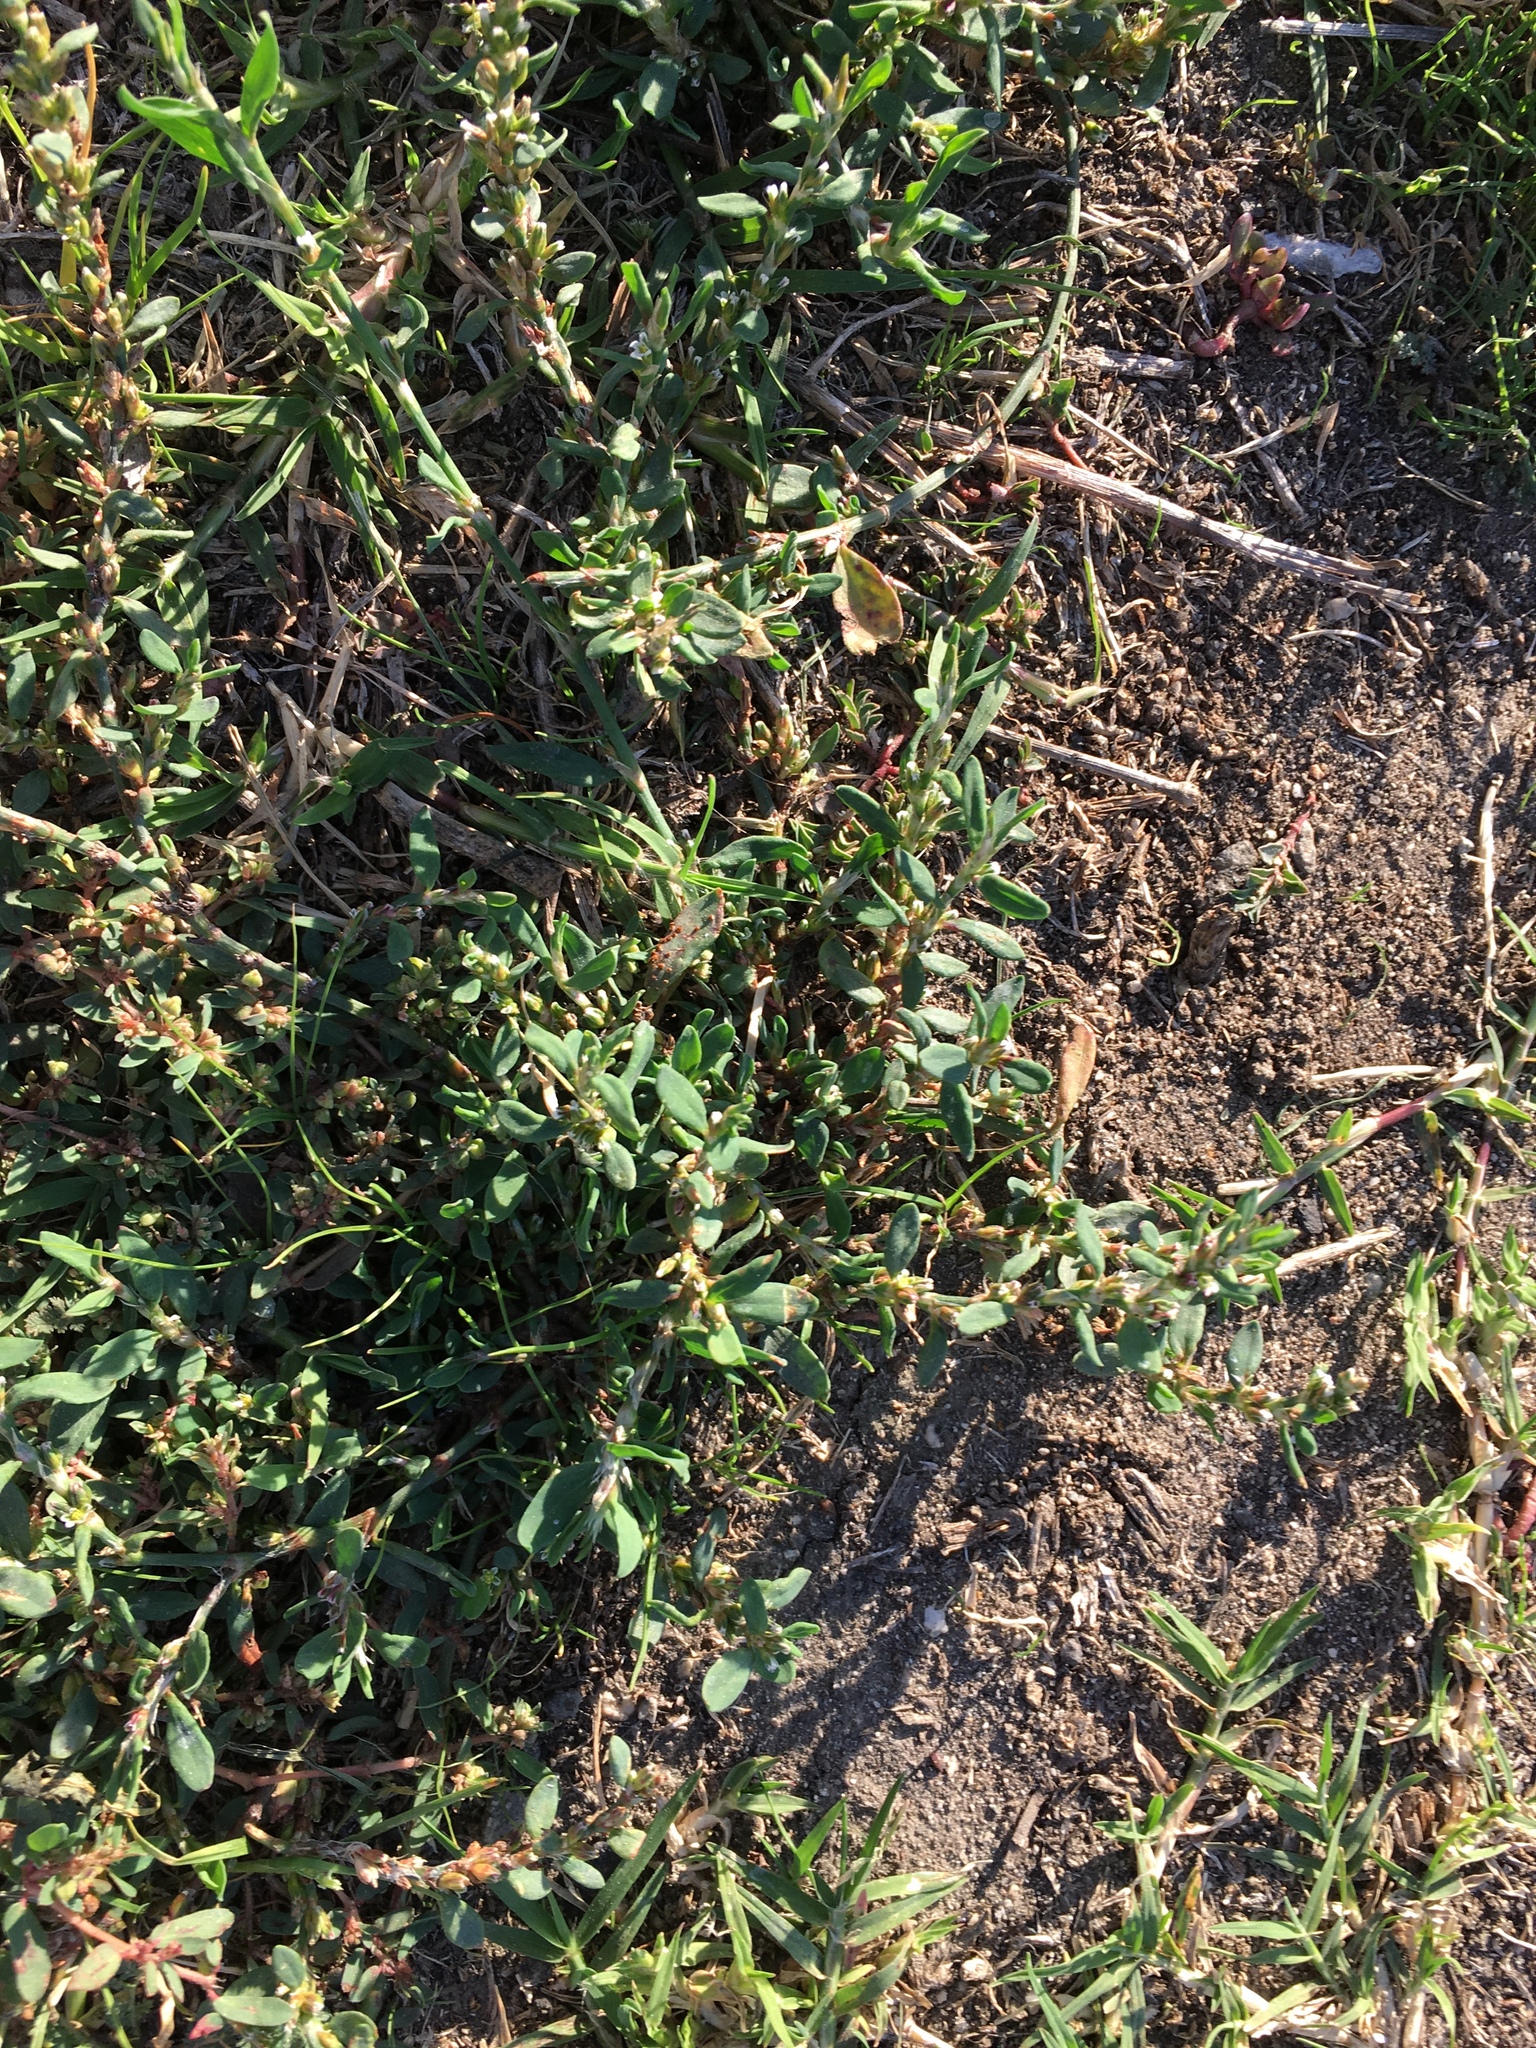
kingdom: Plantae
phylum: Tracheophyta
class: Magnoliopsida
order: Caryophyllales
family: Polygonaceae
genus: Polygonum
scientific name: Polygonum aviculare
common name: Prostrate knotweed
